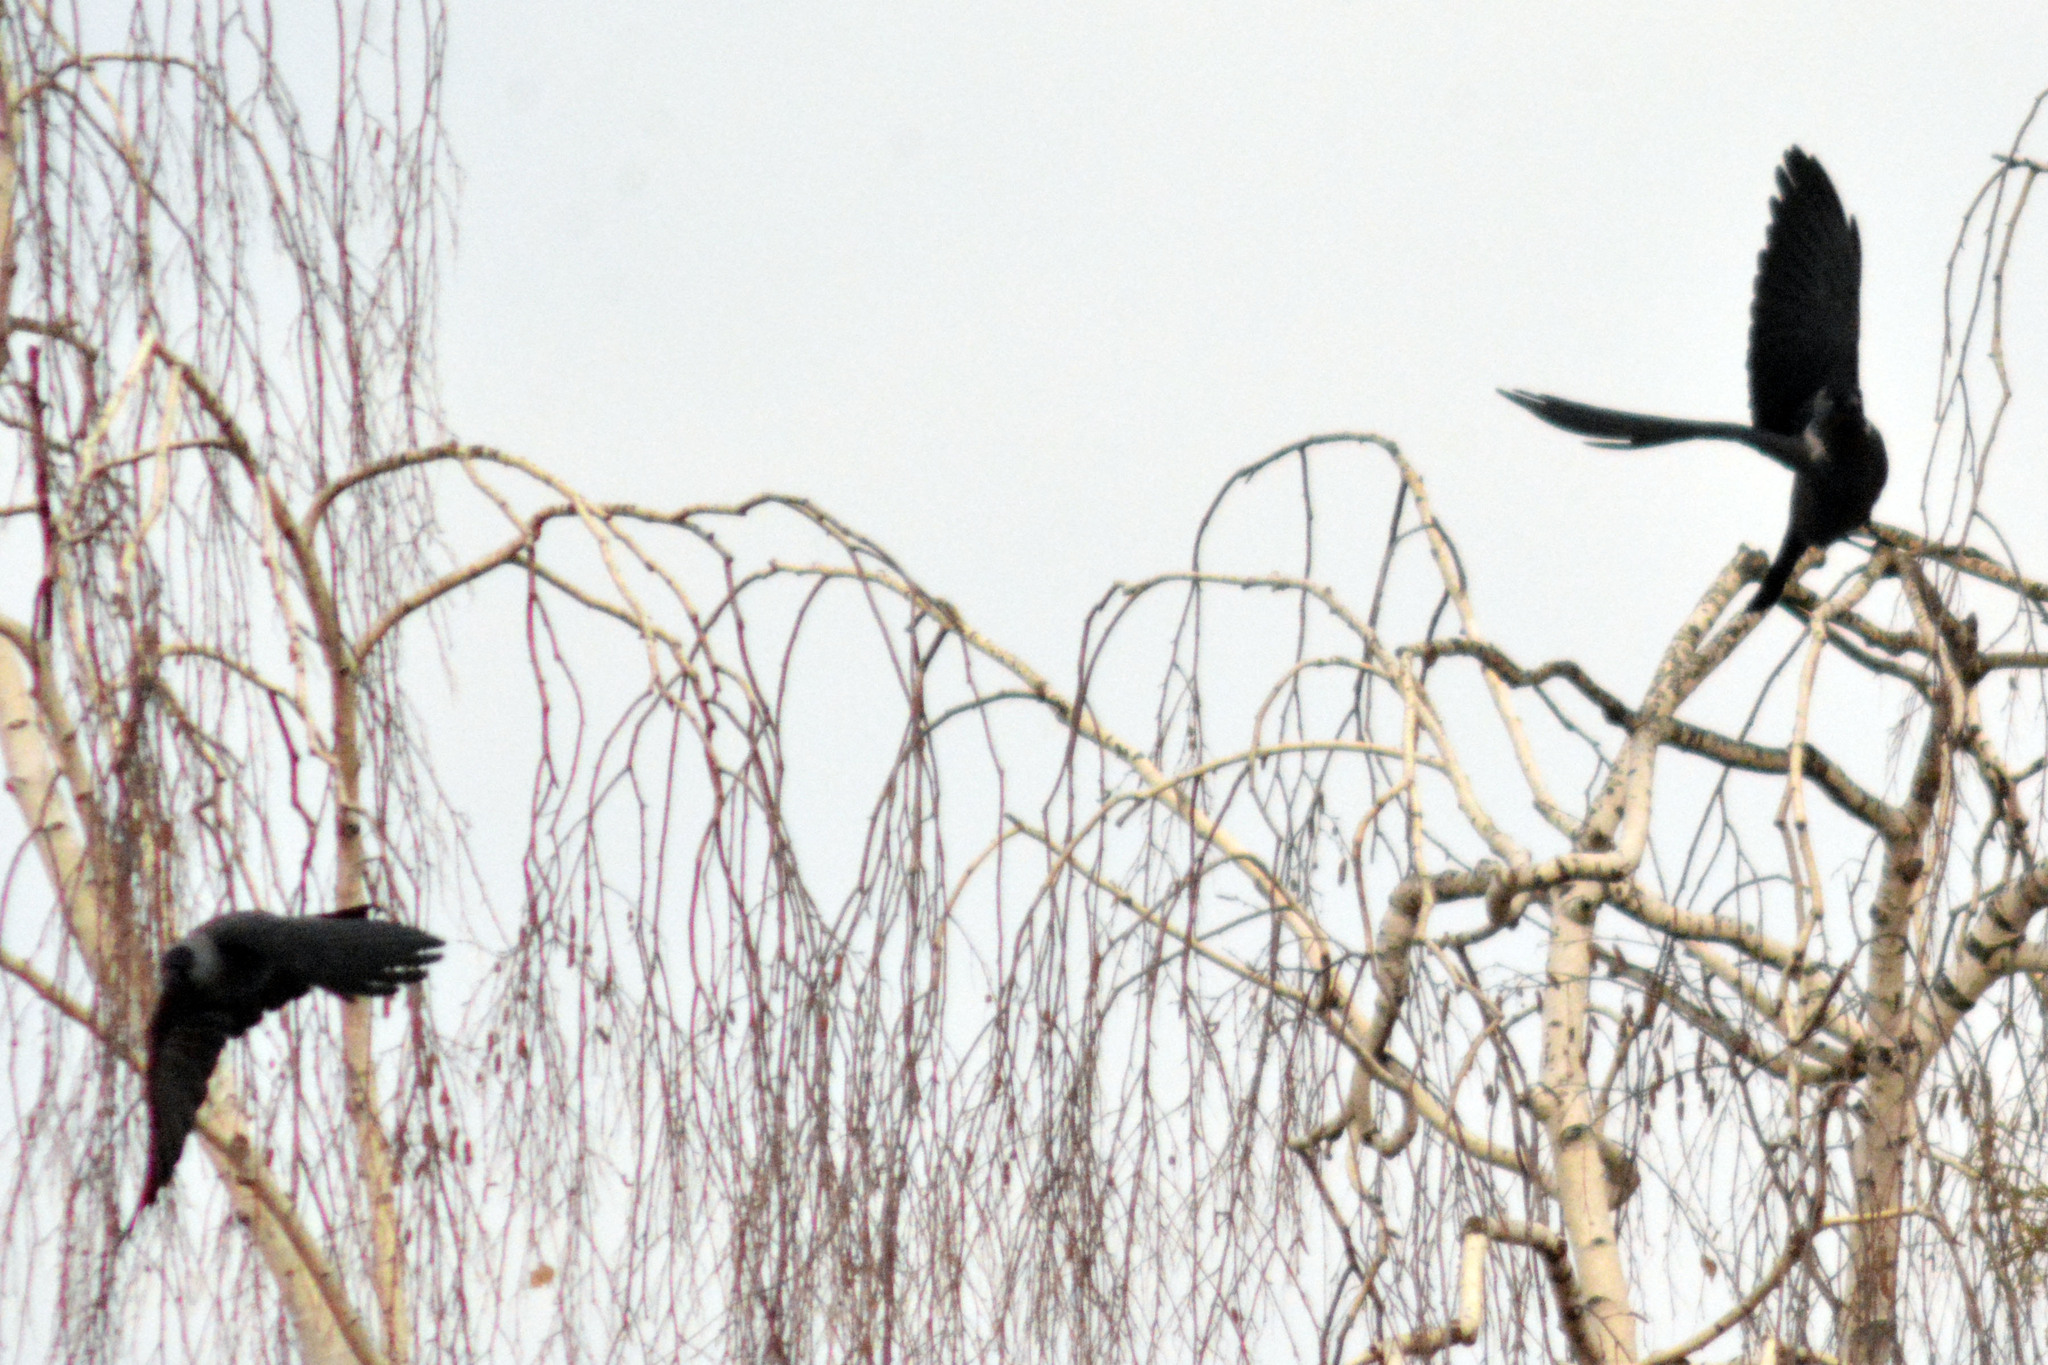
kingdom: Animalia
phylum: Chordata
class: Aves
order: Passeriformes
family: Corvidae
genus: Coloeus
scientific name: Coloeus monedula
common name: Western jackdaw
